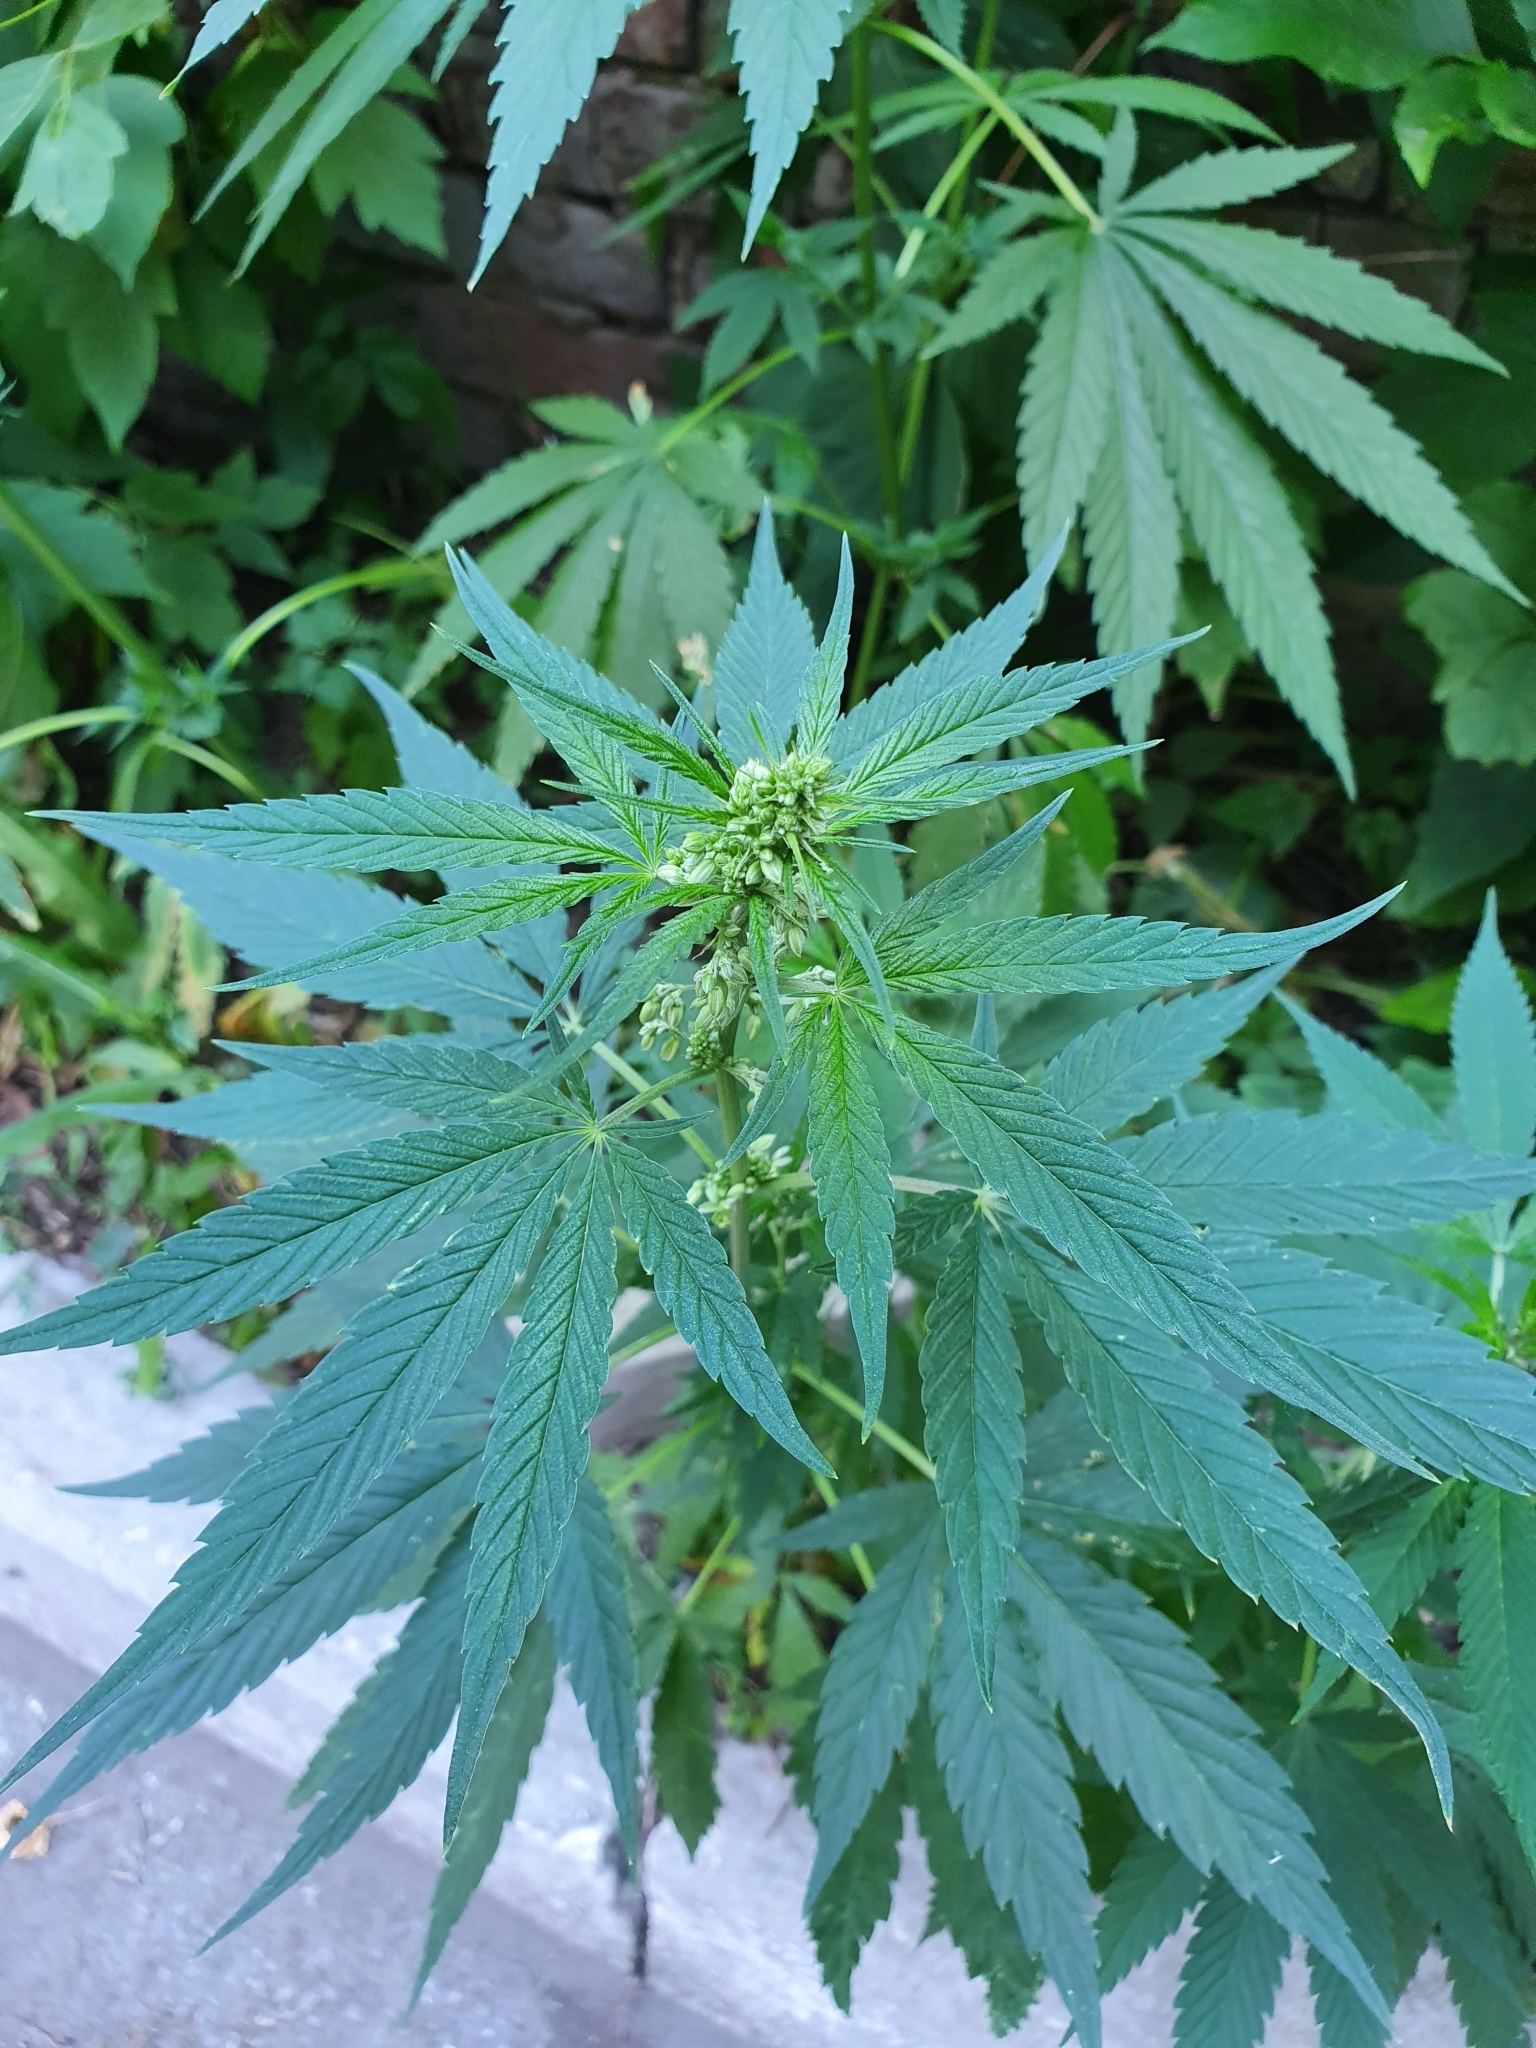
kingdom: Plantae
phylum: Tracheophyta
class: Magnoliopsida
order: Rosales
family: Cannabaceae
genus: Cannabis
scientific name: Cannabis sativa
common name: Hemp
